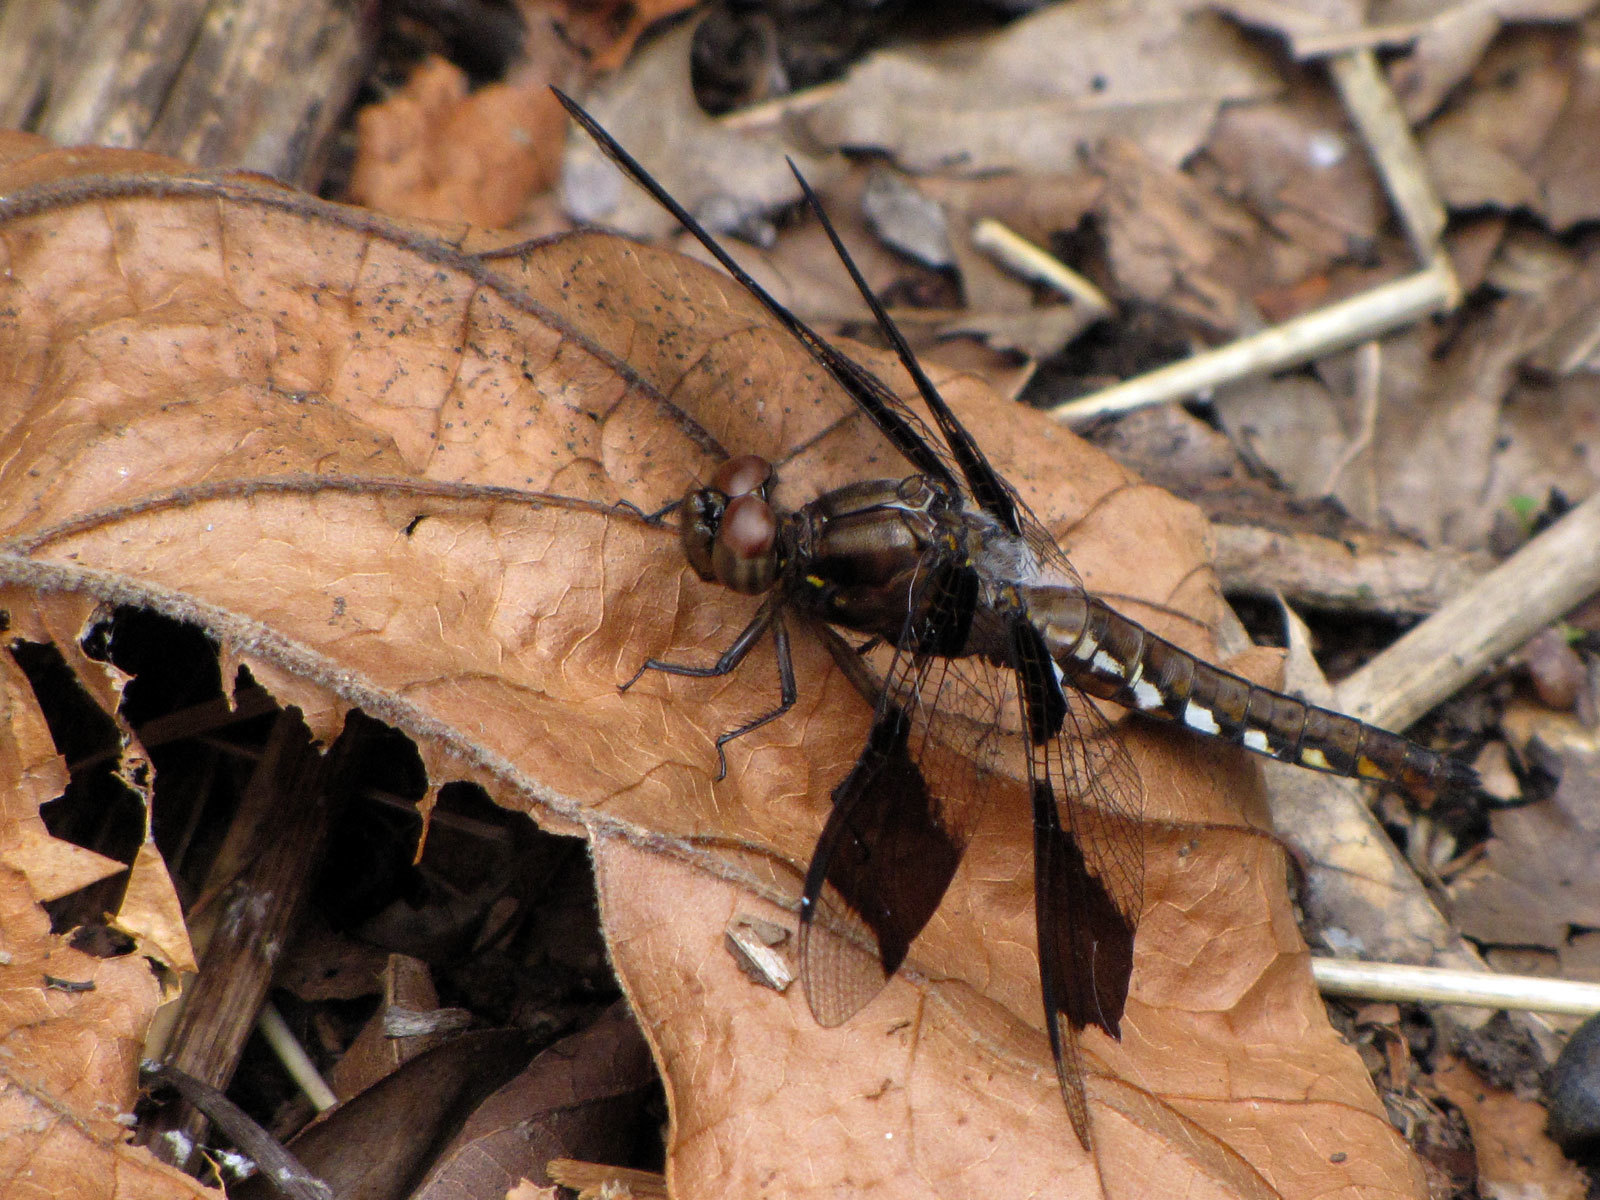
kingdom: Animalia
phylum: Arthropoda
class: Insecta
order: Odonata
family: Libellulidae
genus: Plathemis
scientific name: Plathemis lydia
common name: Common whitetail
